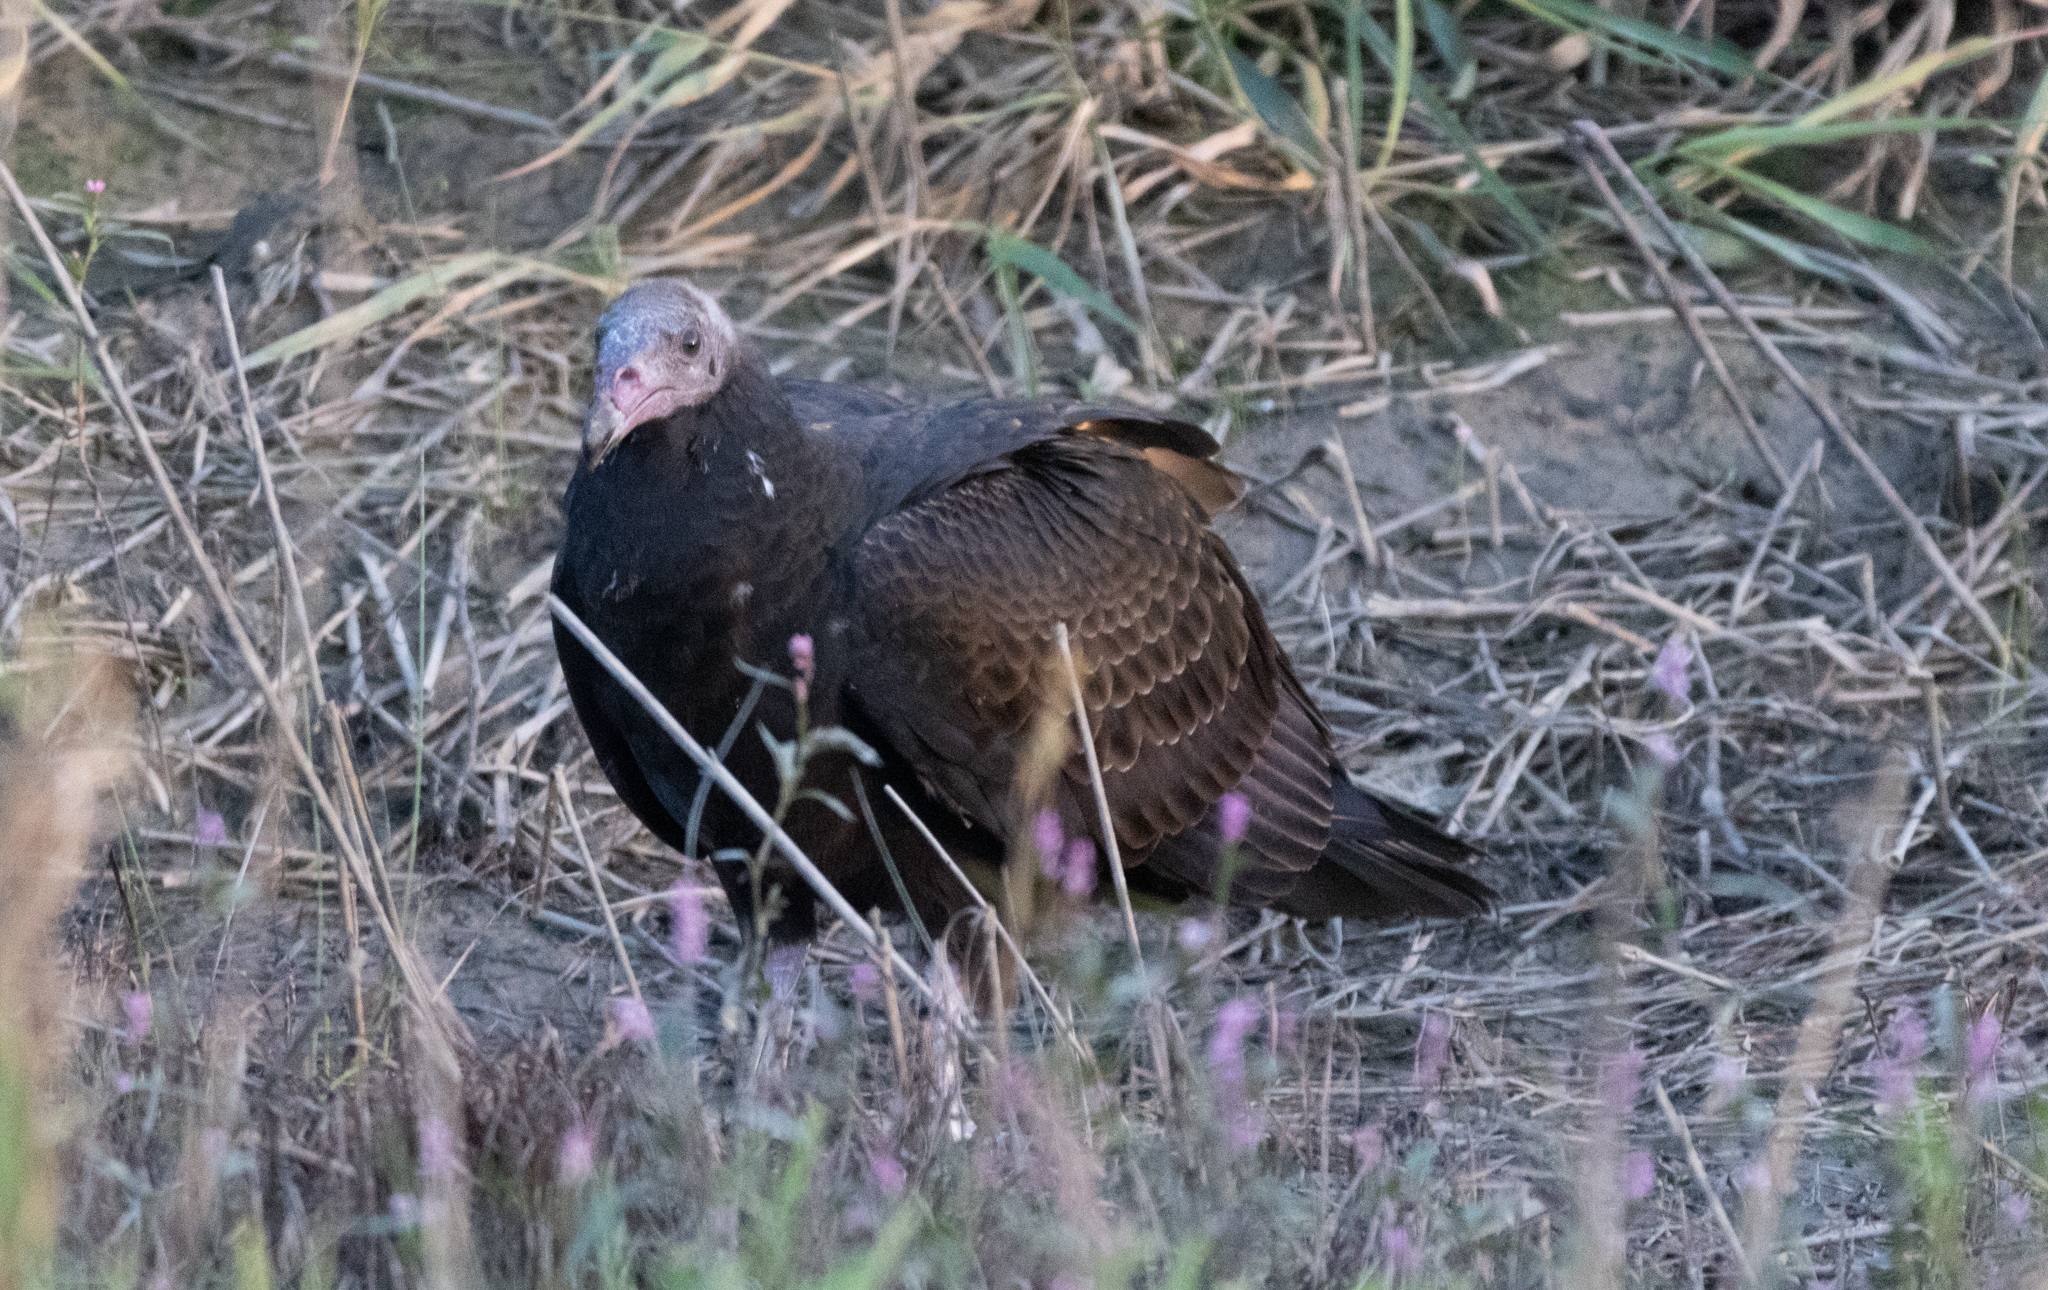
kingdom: Animalia
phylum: Chordata
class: Aves
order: Accipitriformes
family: Cathartidae
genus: Cathartes
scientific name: Cathartes aura
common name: Turkey vulture
